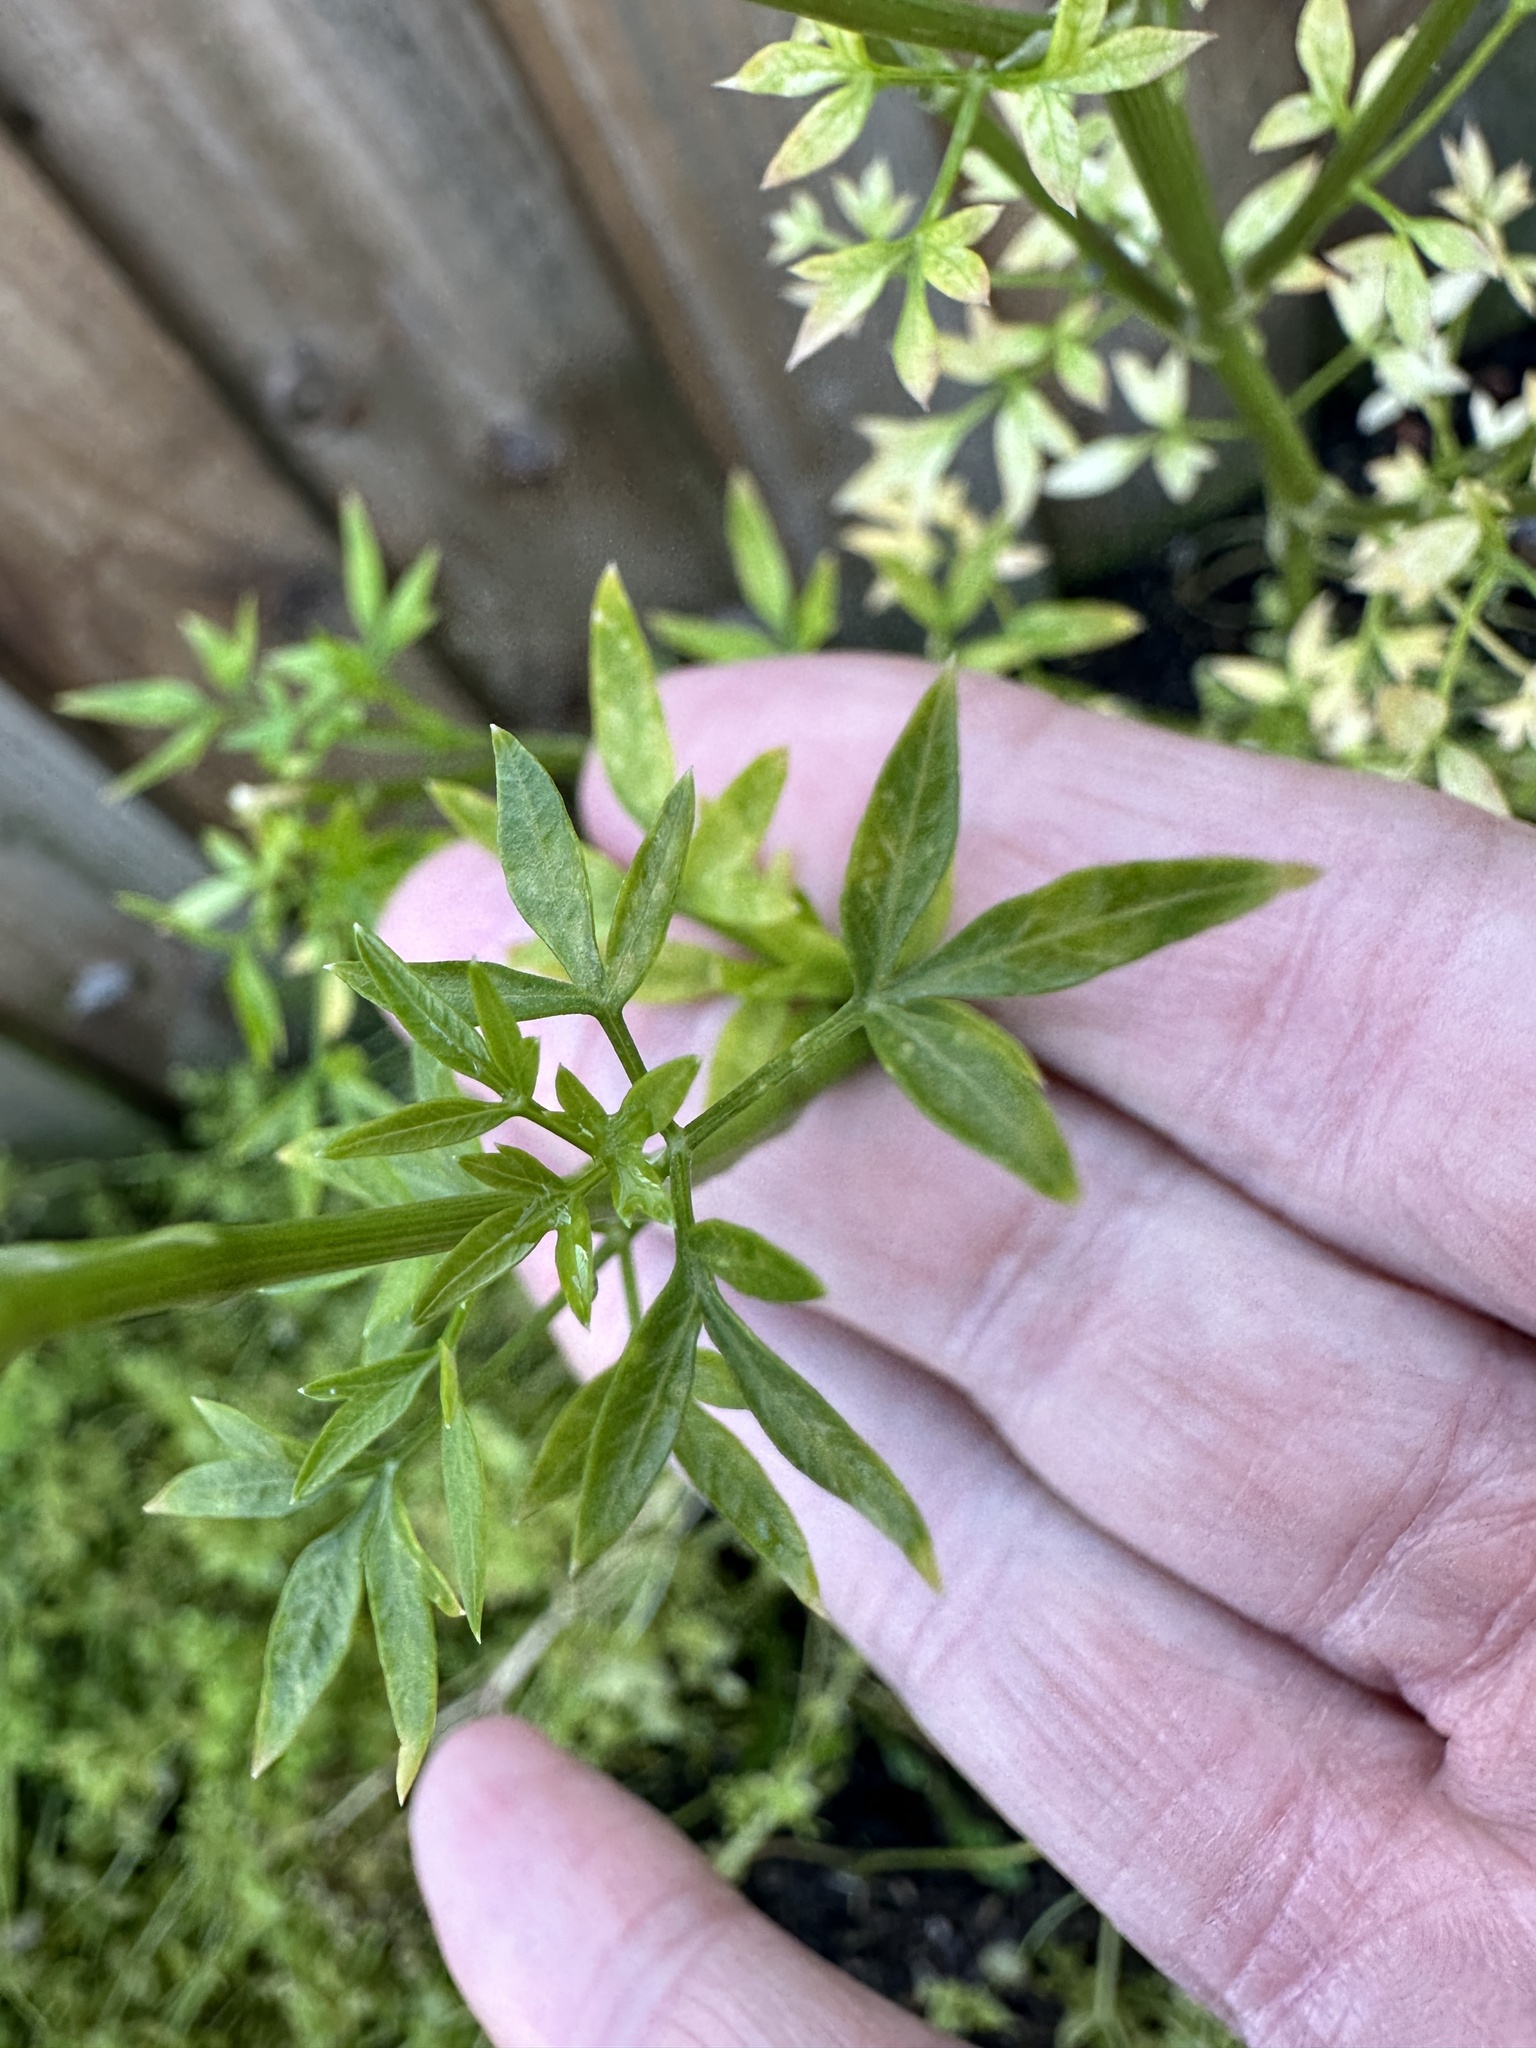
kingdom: Plantae
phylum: Tracheophyta
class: Magnoliopsida
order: Apiales
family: Apiaceae
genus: Petroselinum
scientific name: Petroselinum crispum
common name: Parsley
